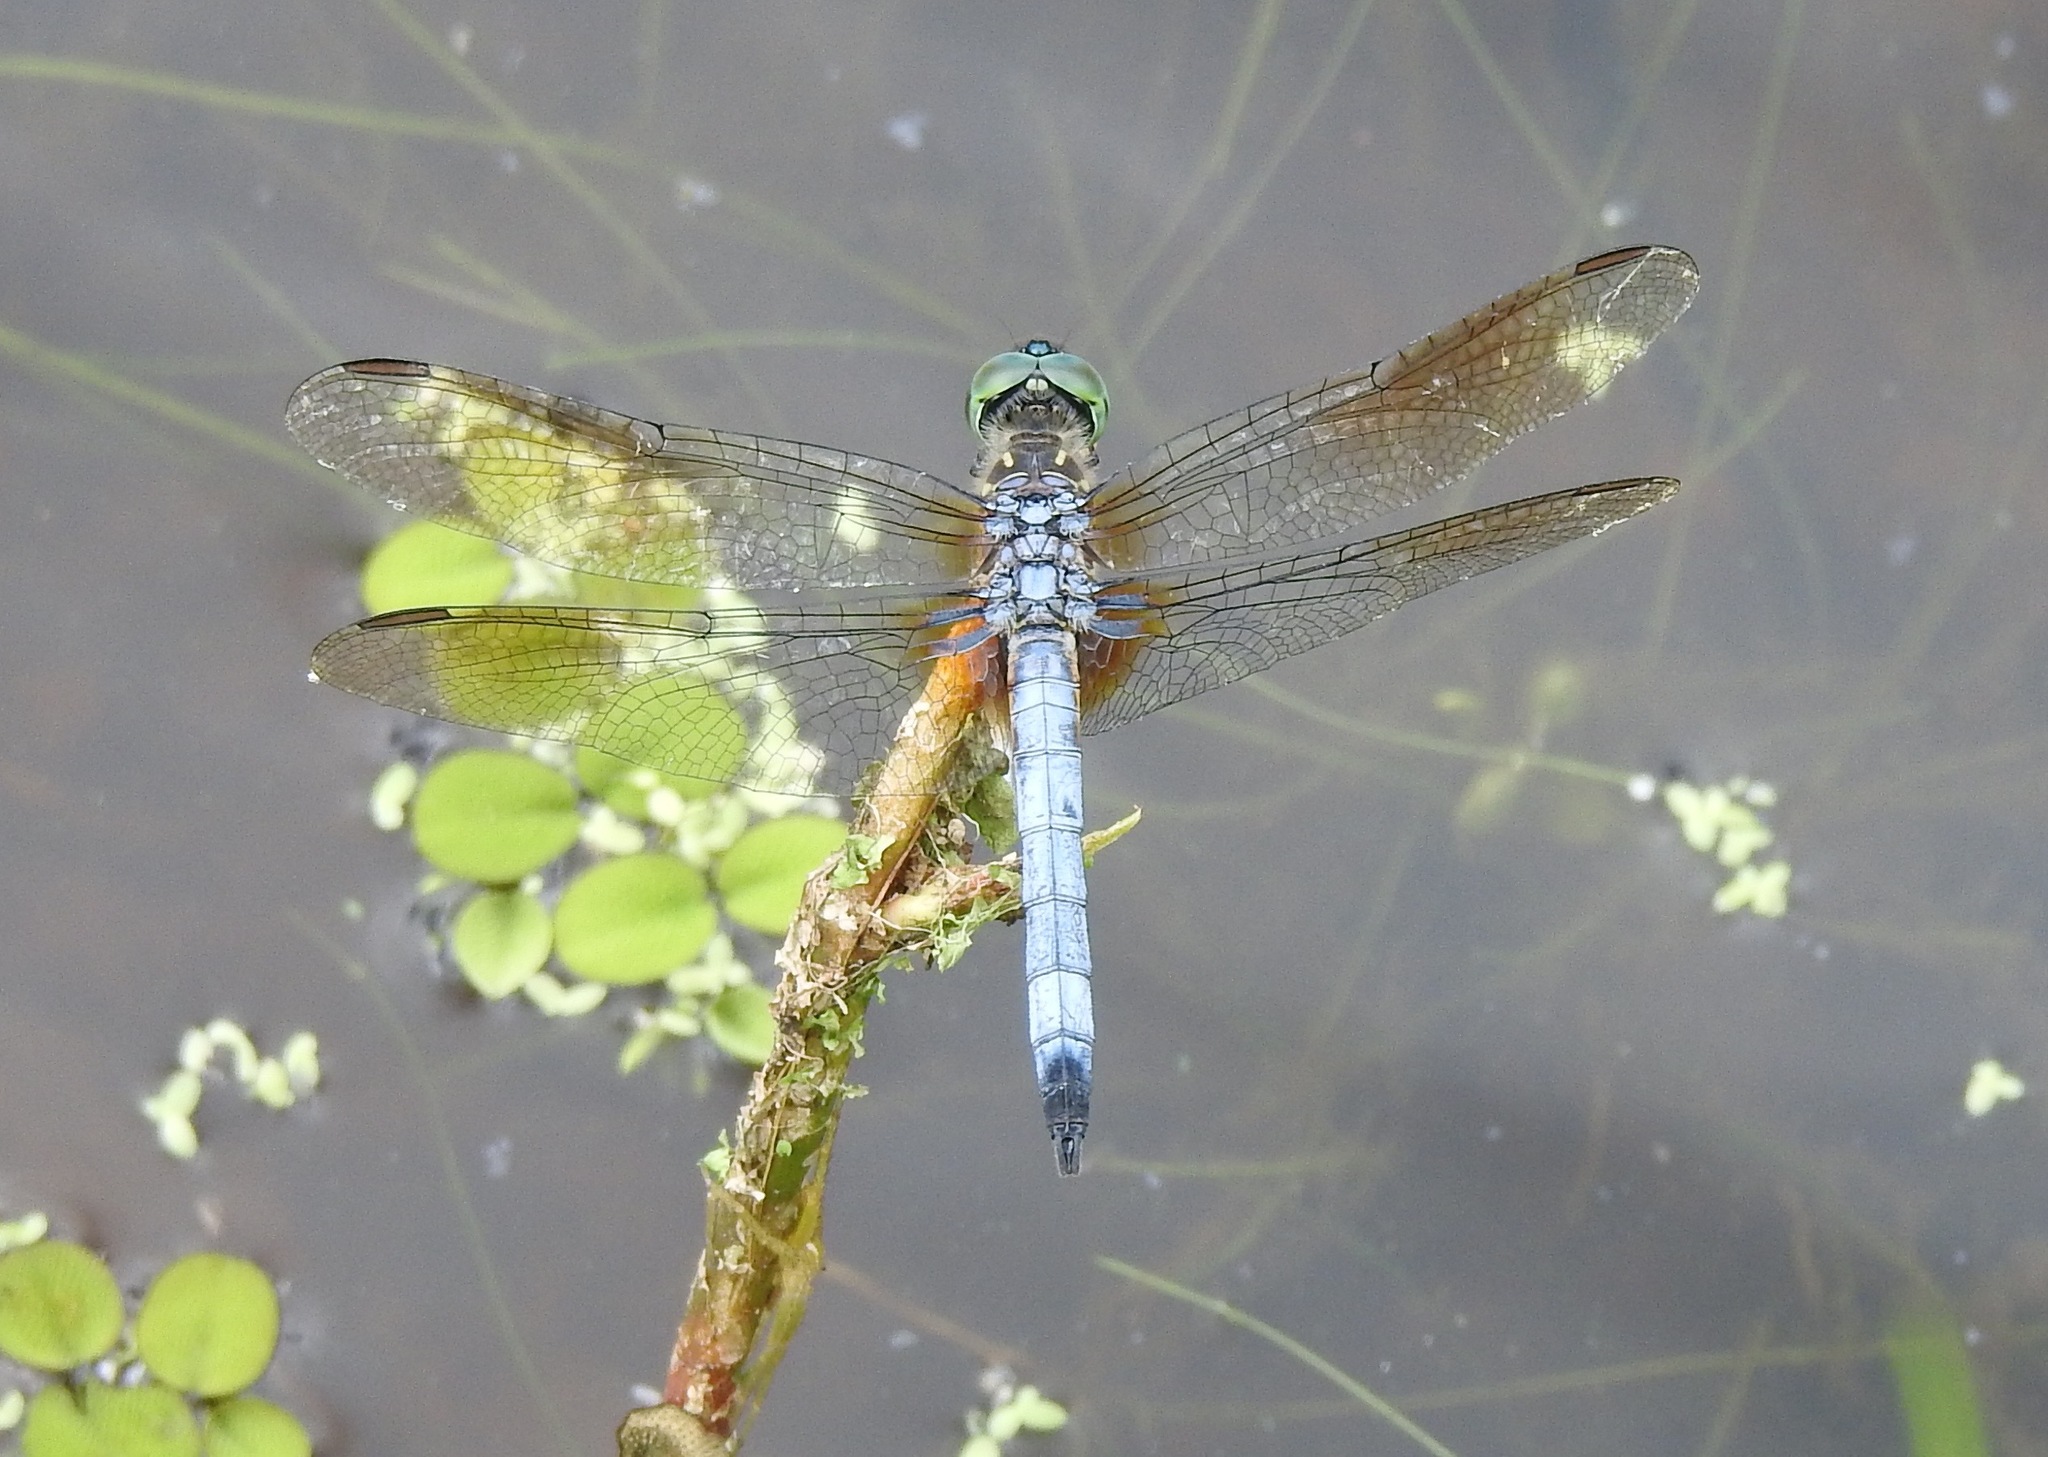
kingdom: Animalia
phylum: Arthropoda
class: Insecta
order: Odonata
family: Libellulidae
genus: Pachydiplax
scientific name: Pachydiplax longipennis
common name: Blue dasher
